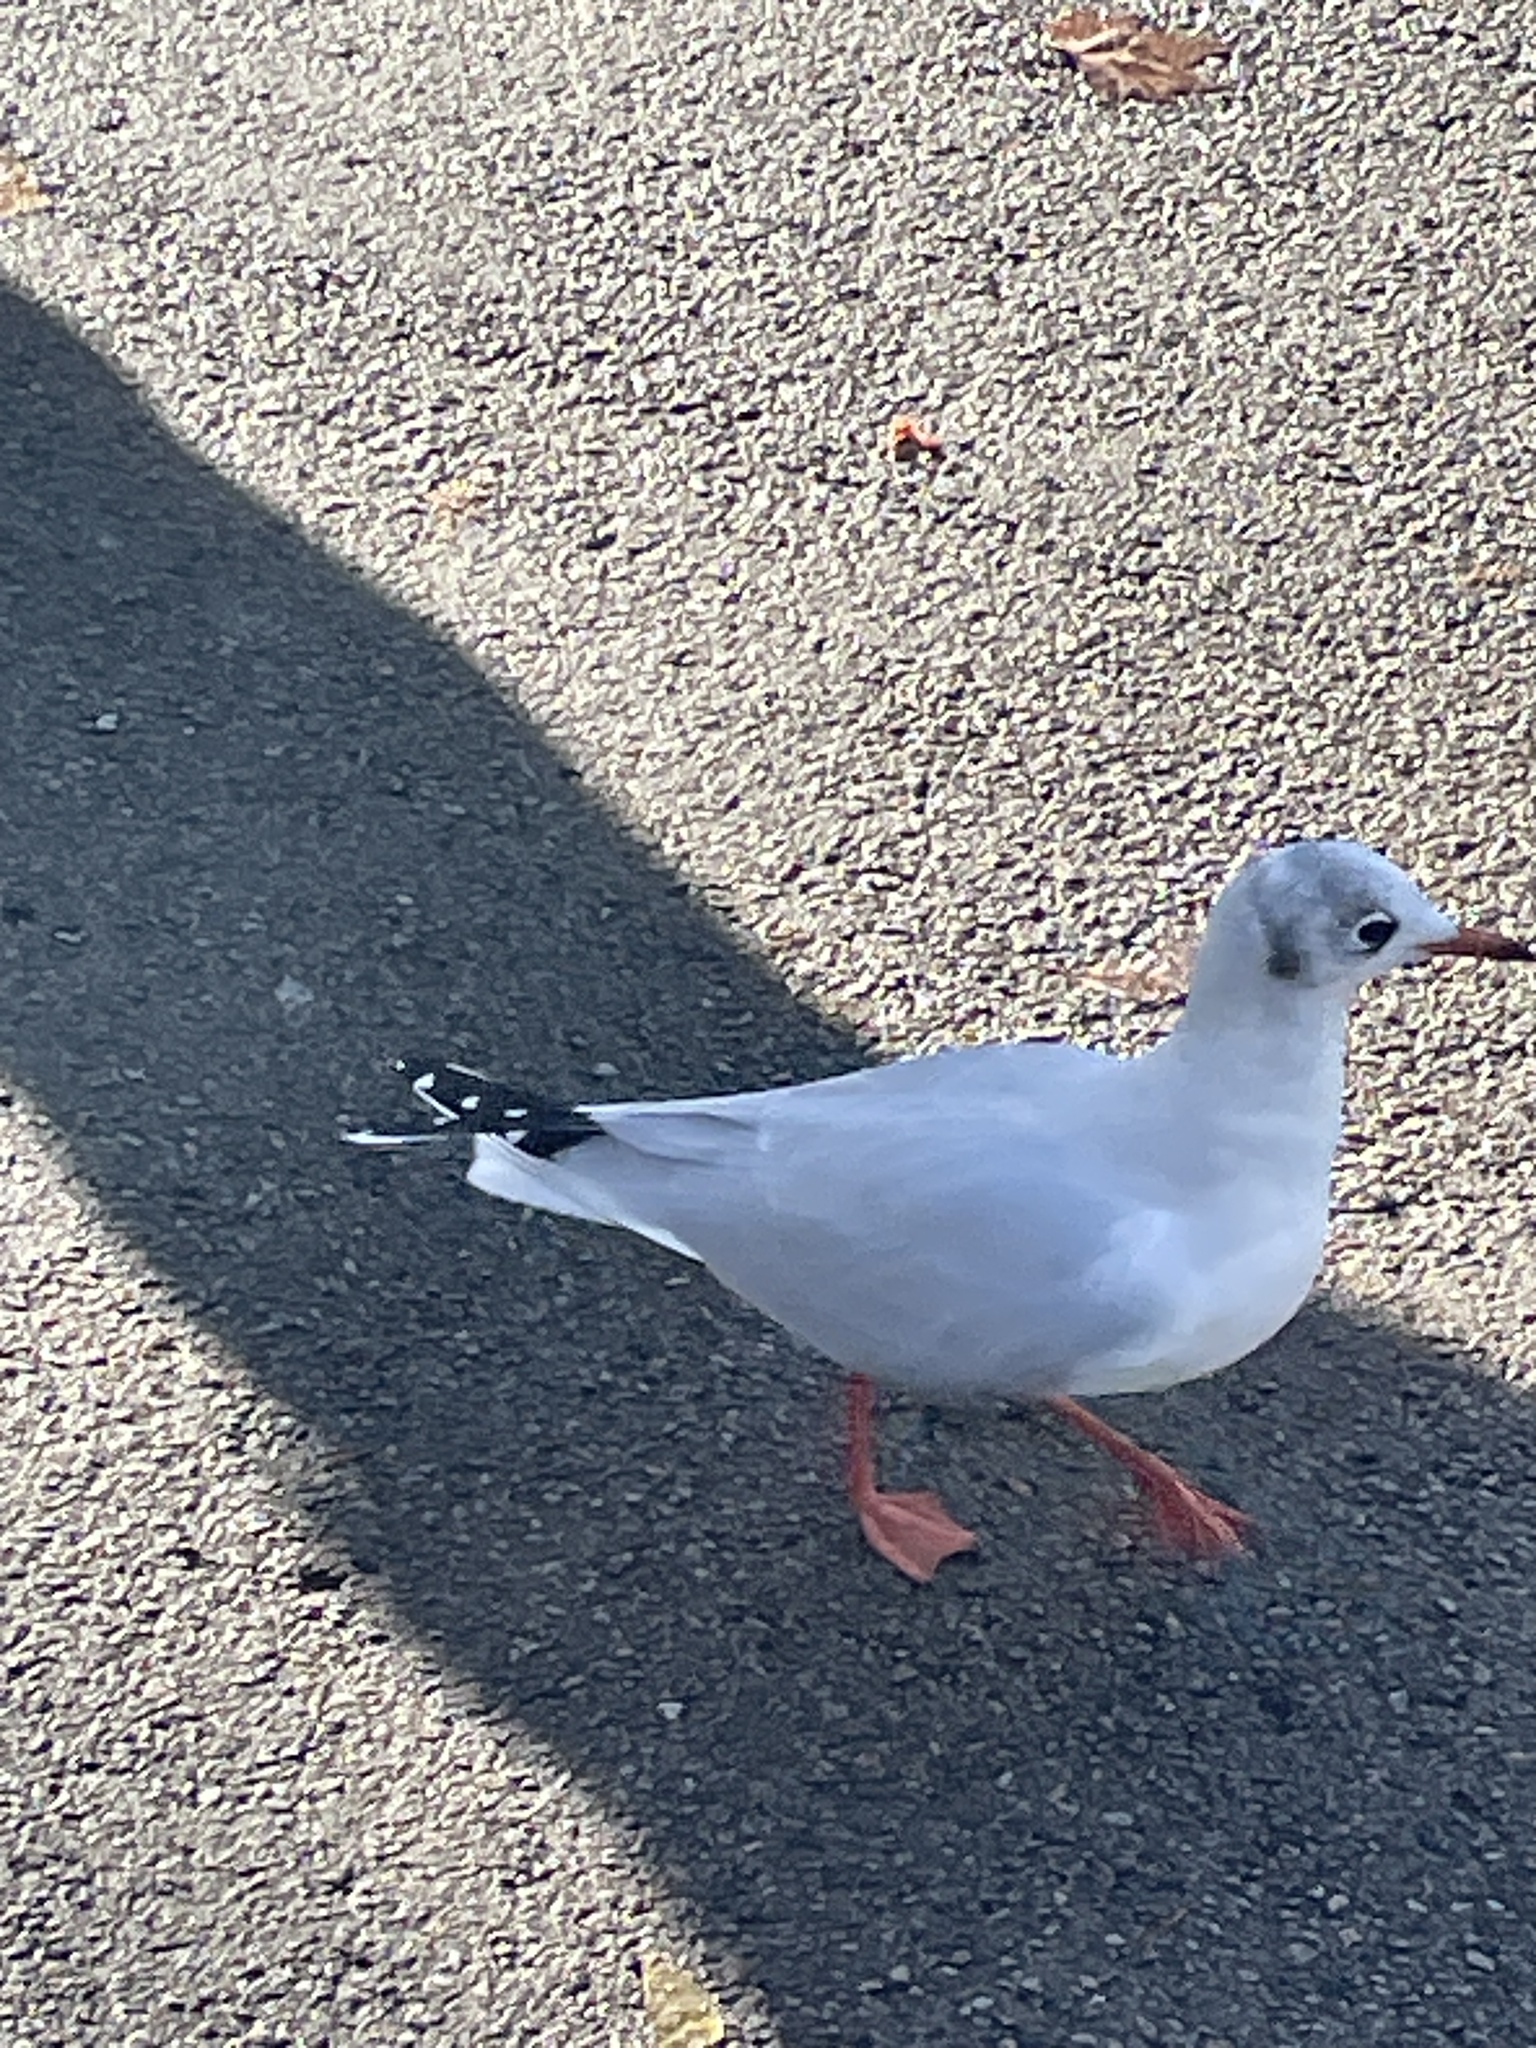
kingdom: Animalia
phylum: Chordata
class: Aves
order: Charadriiformes
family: Laridae
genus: Chroicocephalus
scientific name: Chroicocephalus ridibundus
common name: Black-headed gull
